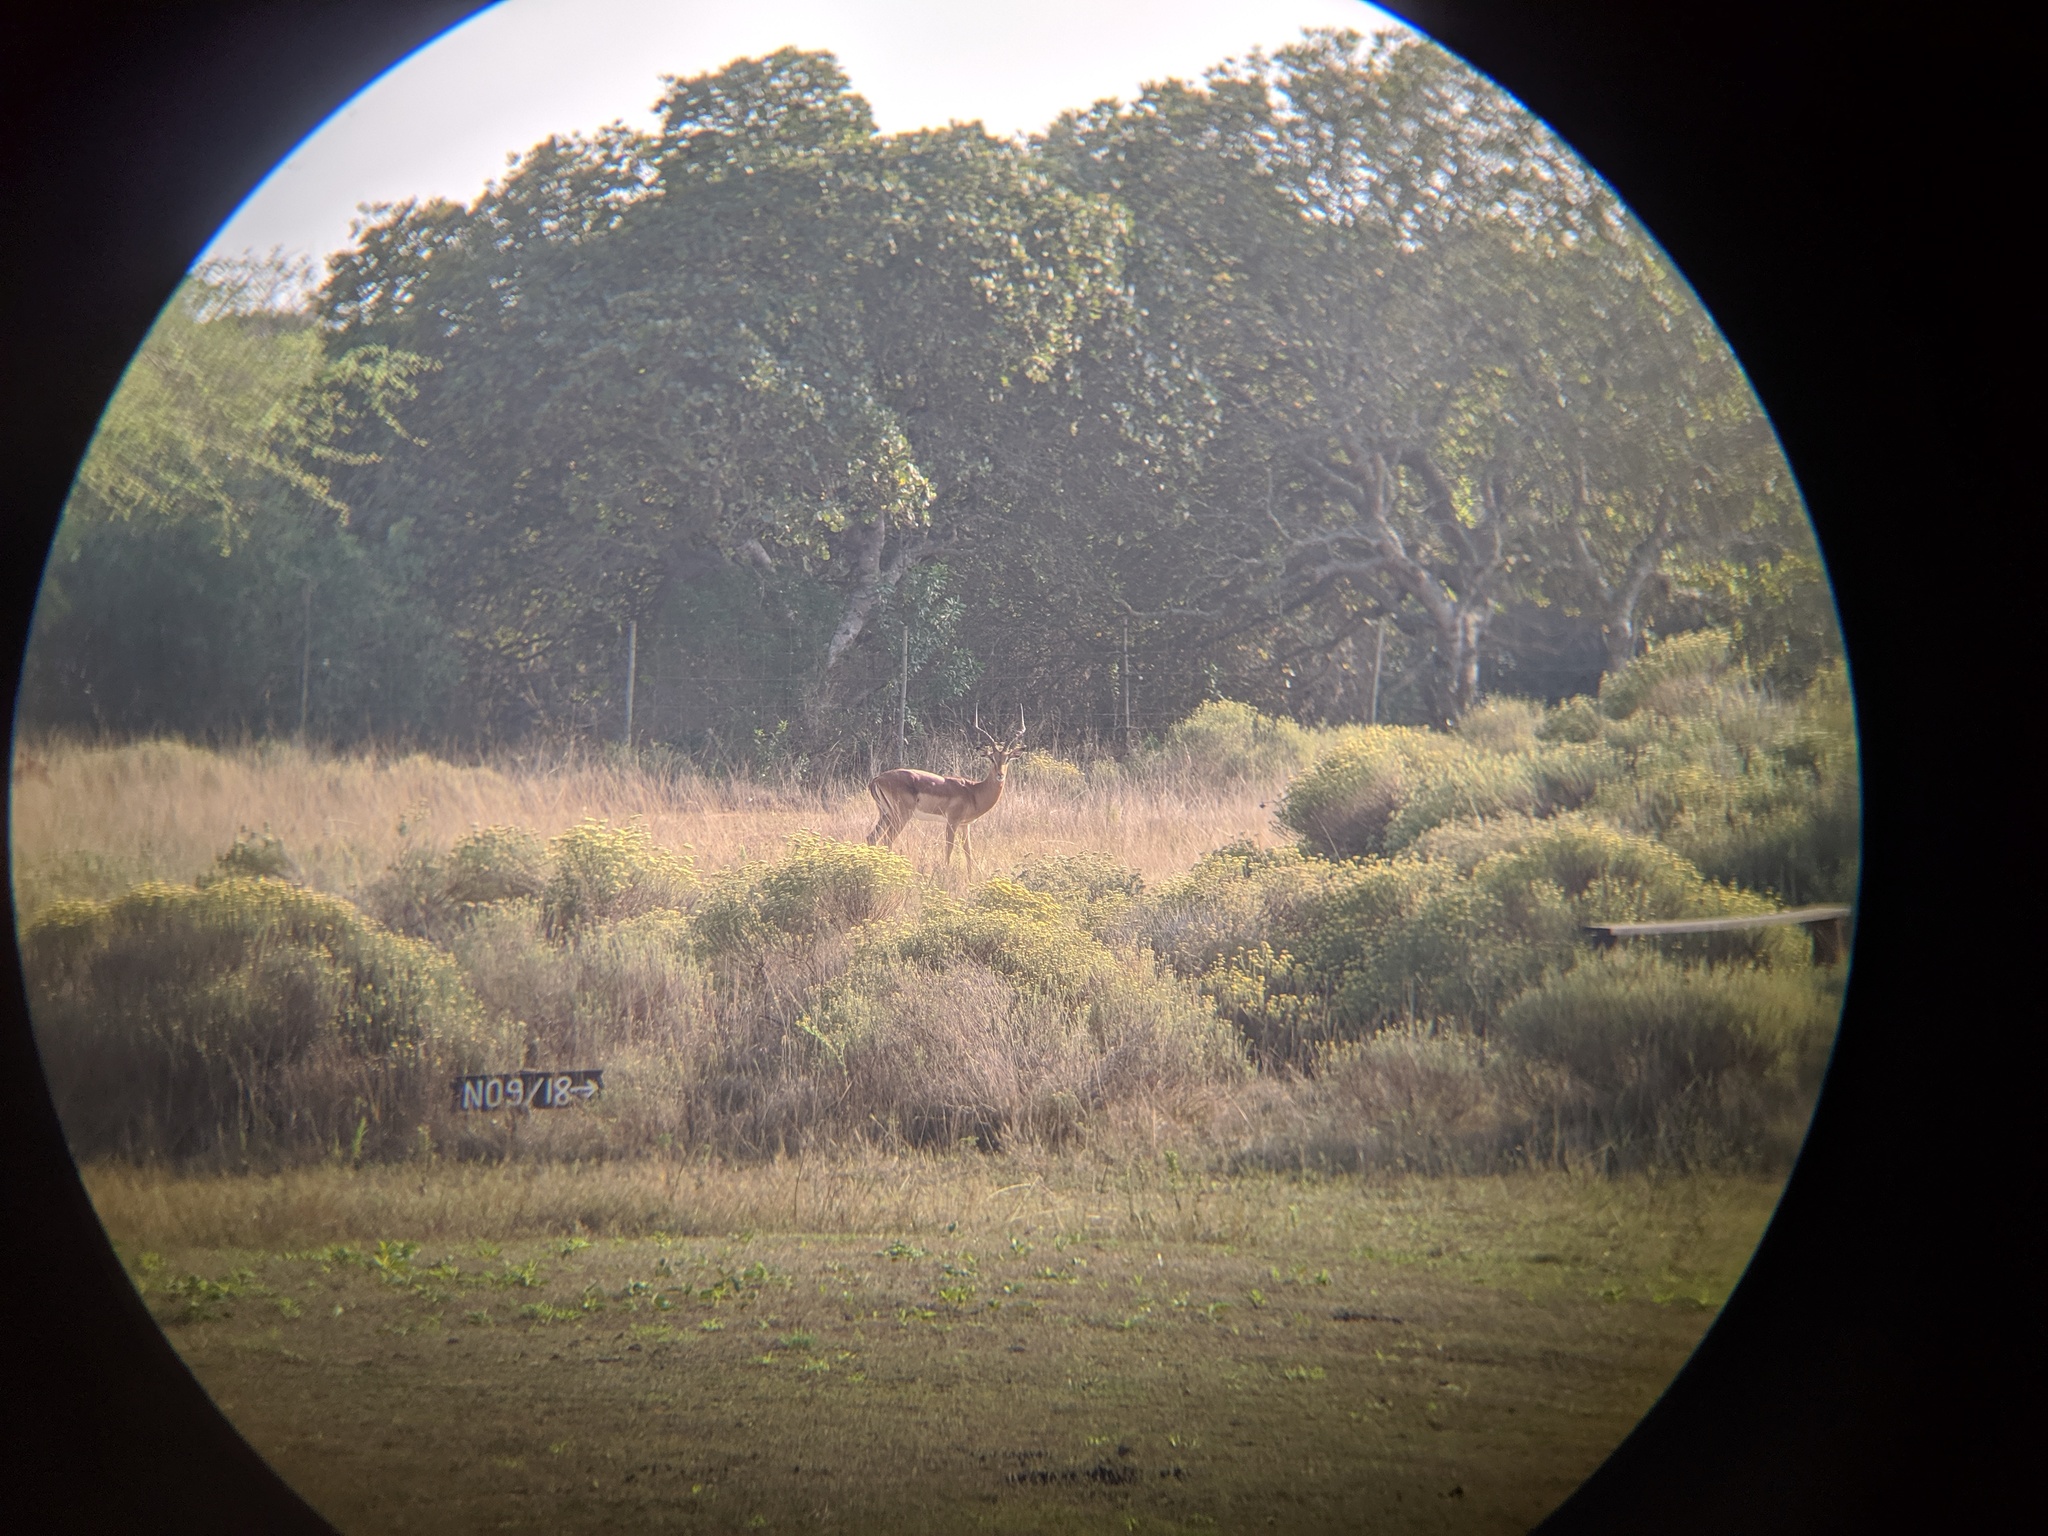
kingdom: Animalia
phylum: Chordata
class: Mammalia
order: Artiodactyla
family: Bovidae
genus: Aepyceros
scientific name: Aepyceros melampus
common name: Impala
